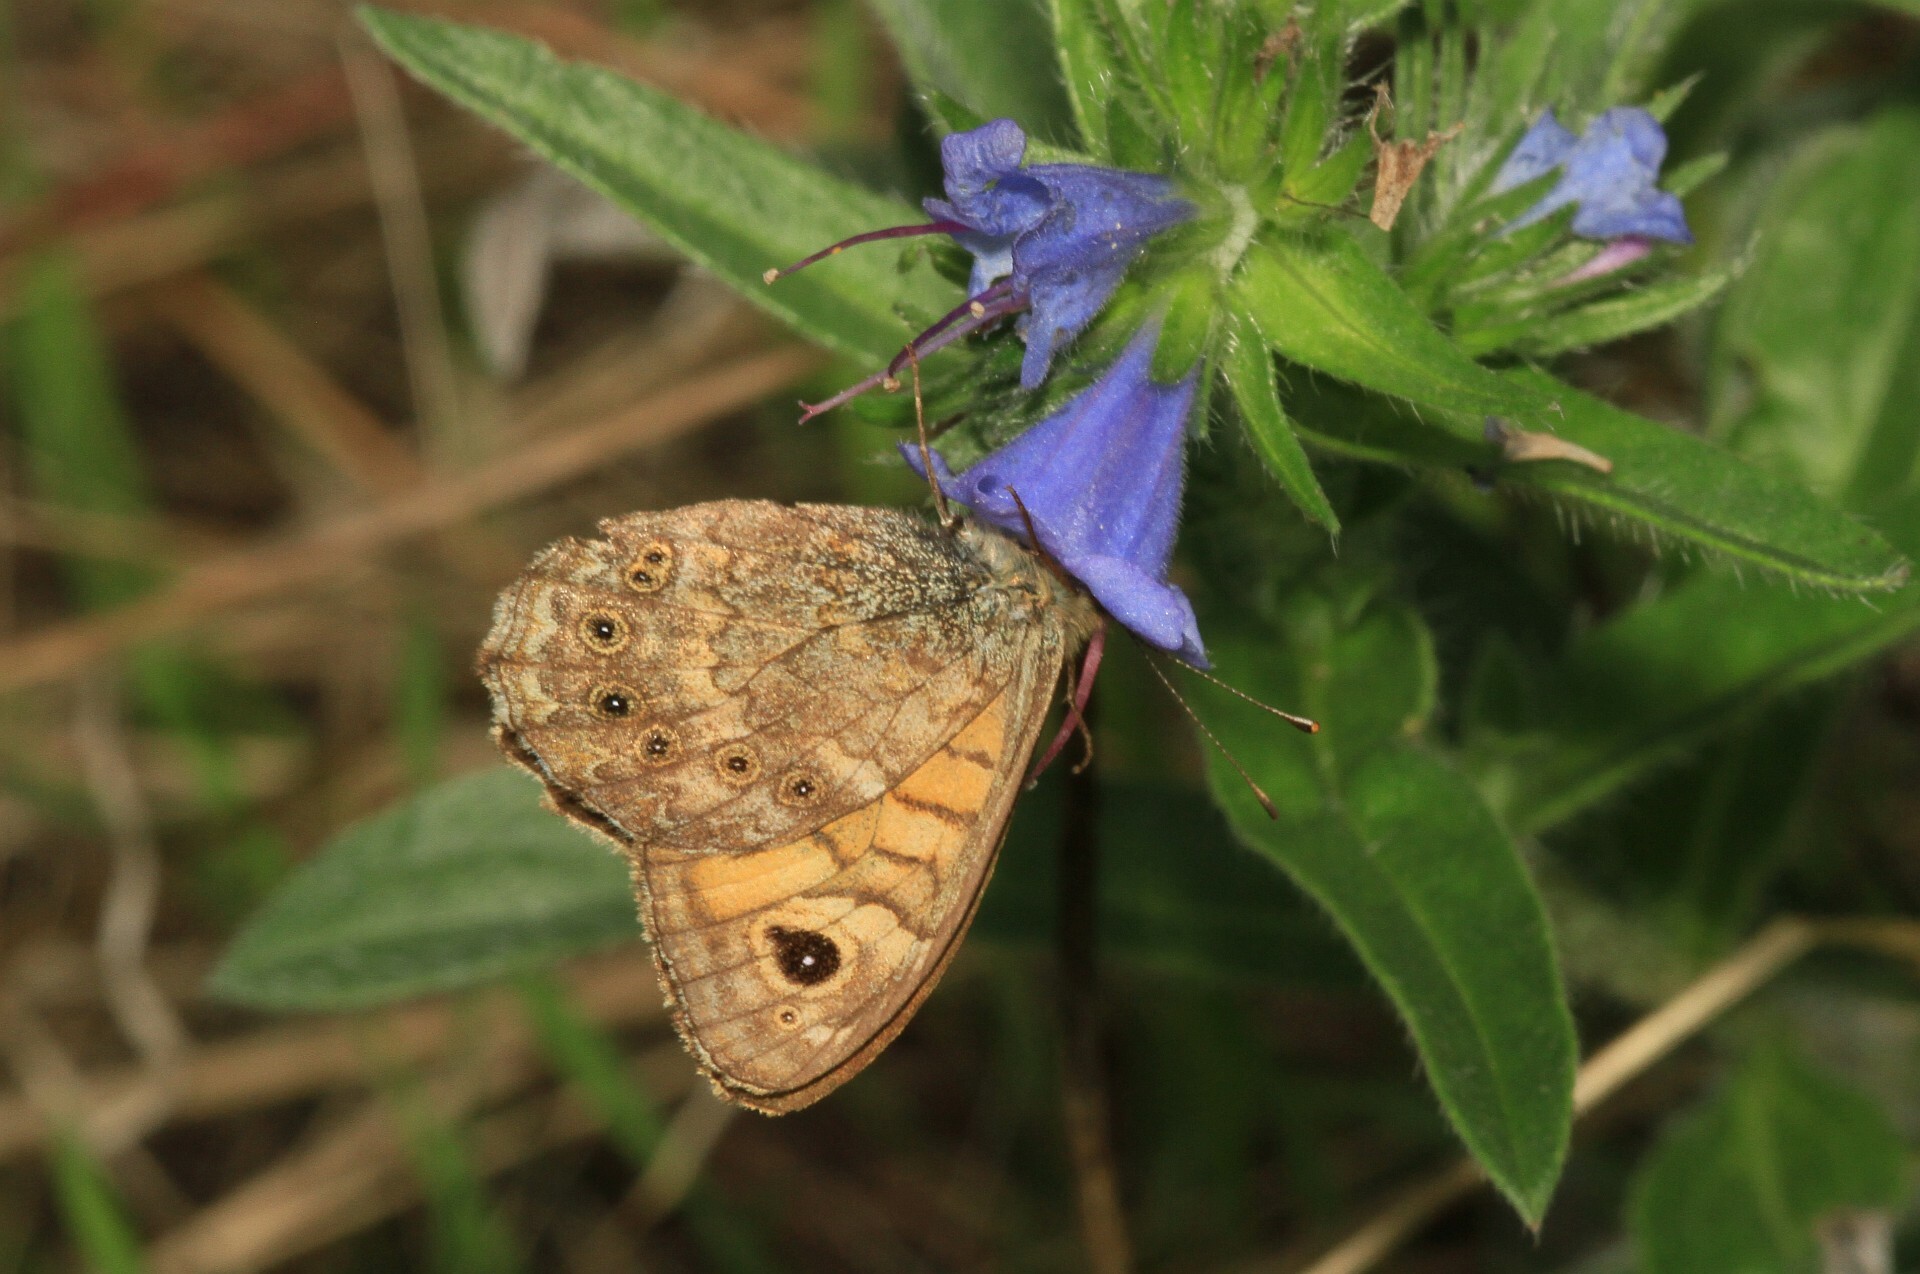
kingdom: Animalia
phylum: Arthropoda
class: Insecta
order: Lepidoptera
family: Nymphalidae
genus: Pararge
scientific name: Pararge Lasiommata megera
